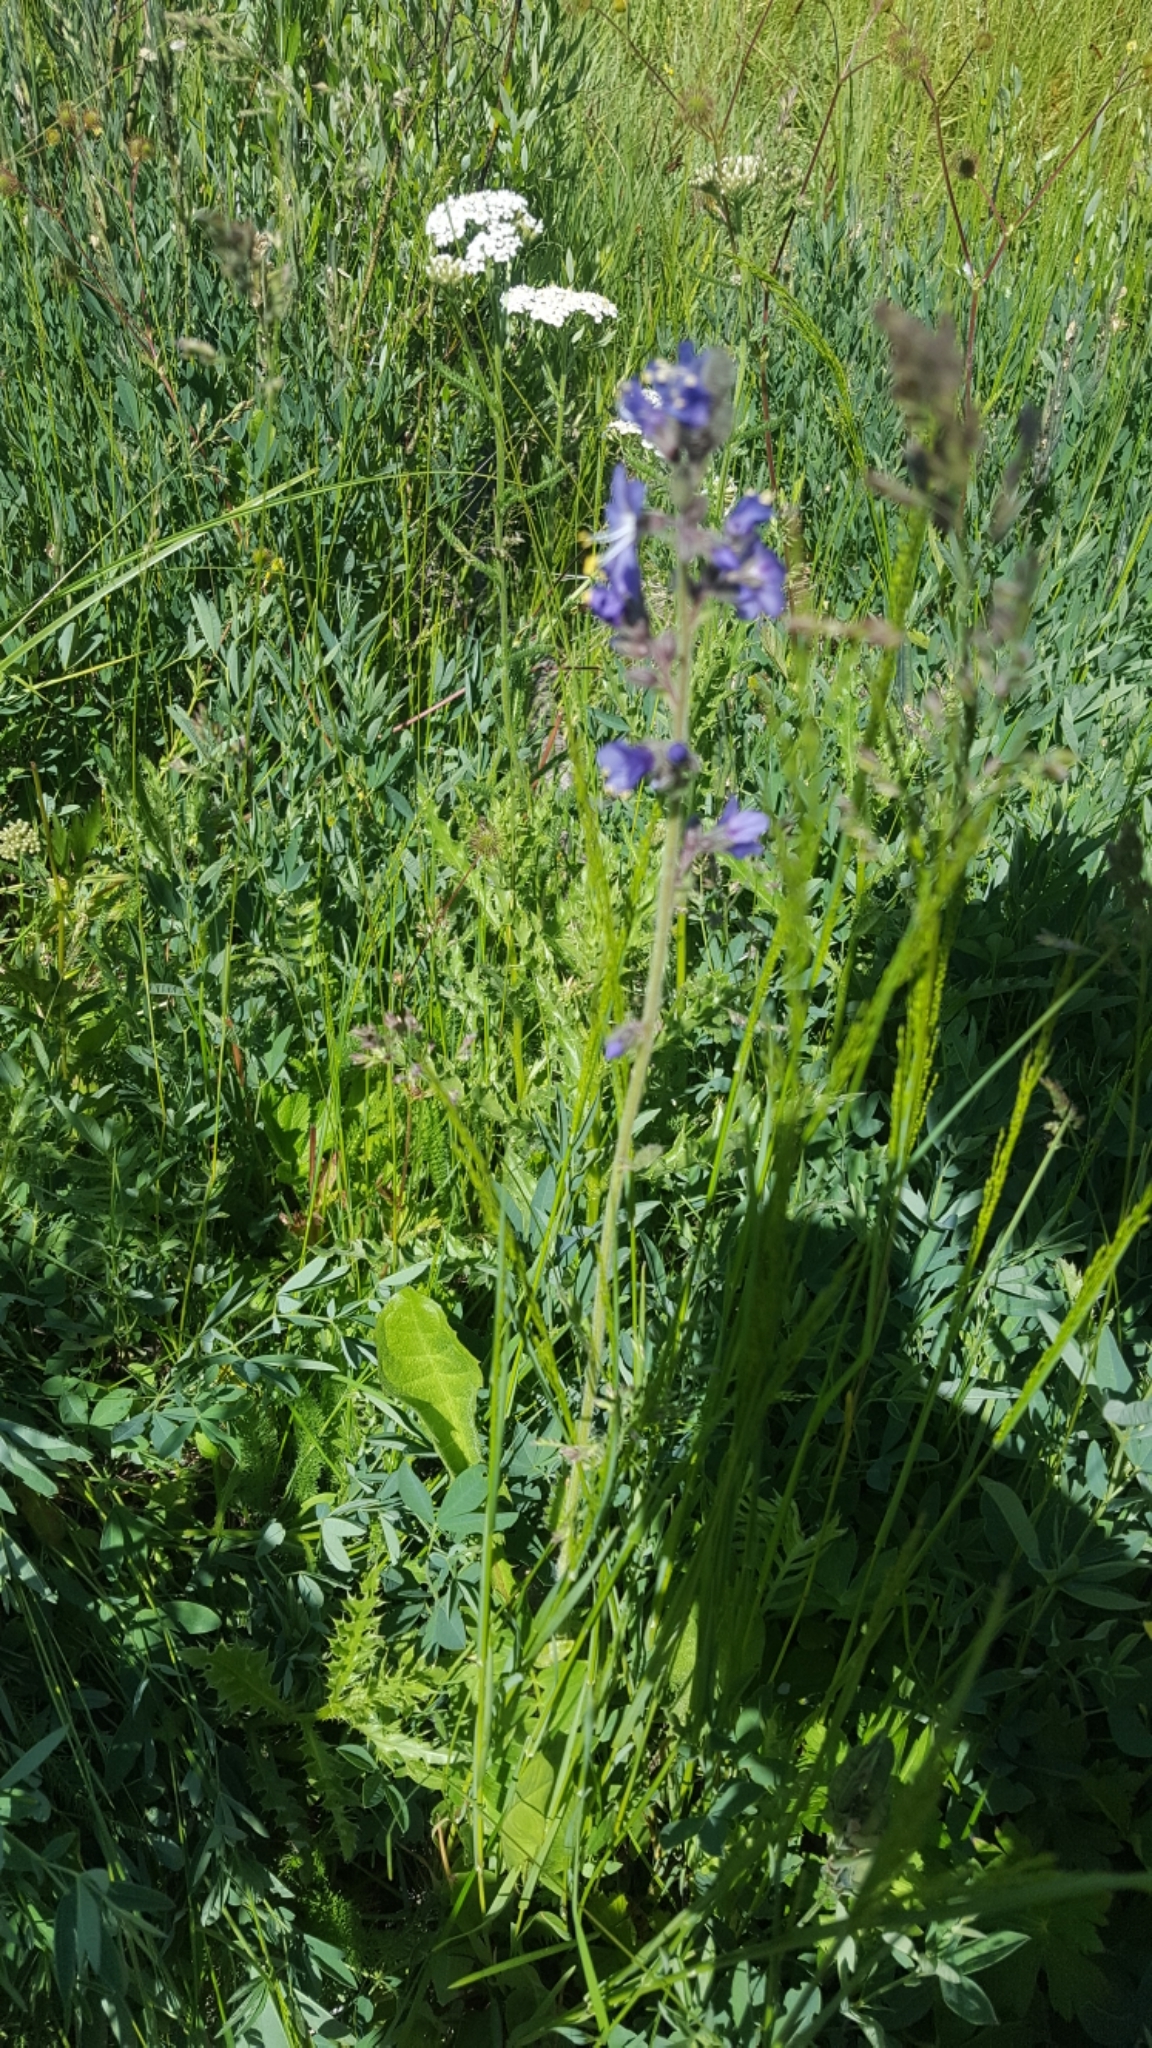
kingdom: Plantae
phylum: Tracheophyta
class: Magnoliopsida
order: Ericales
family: Polemoniaceae
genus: Polemonium
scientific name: Polemonium occidentale
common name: Western jacob's-ladder
